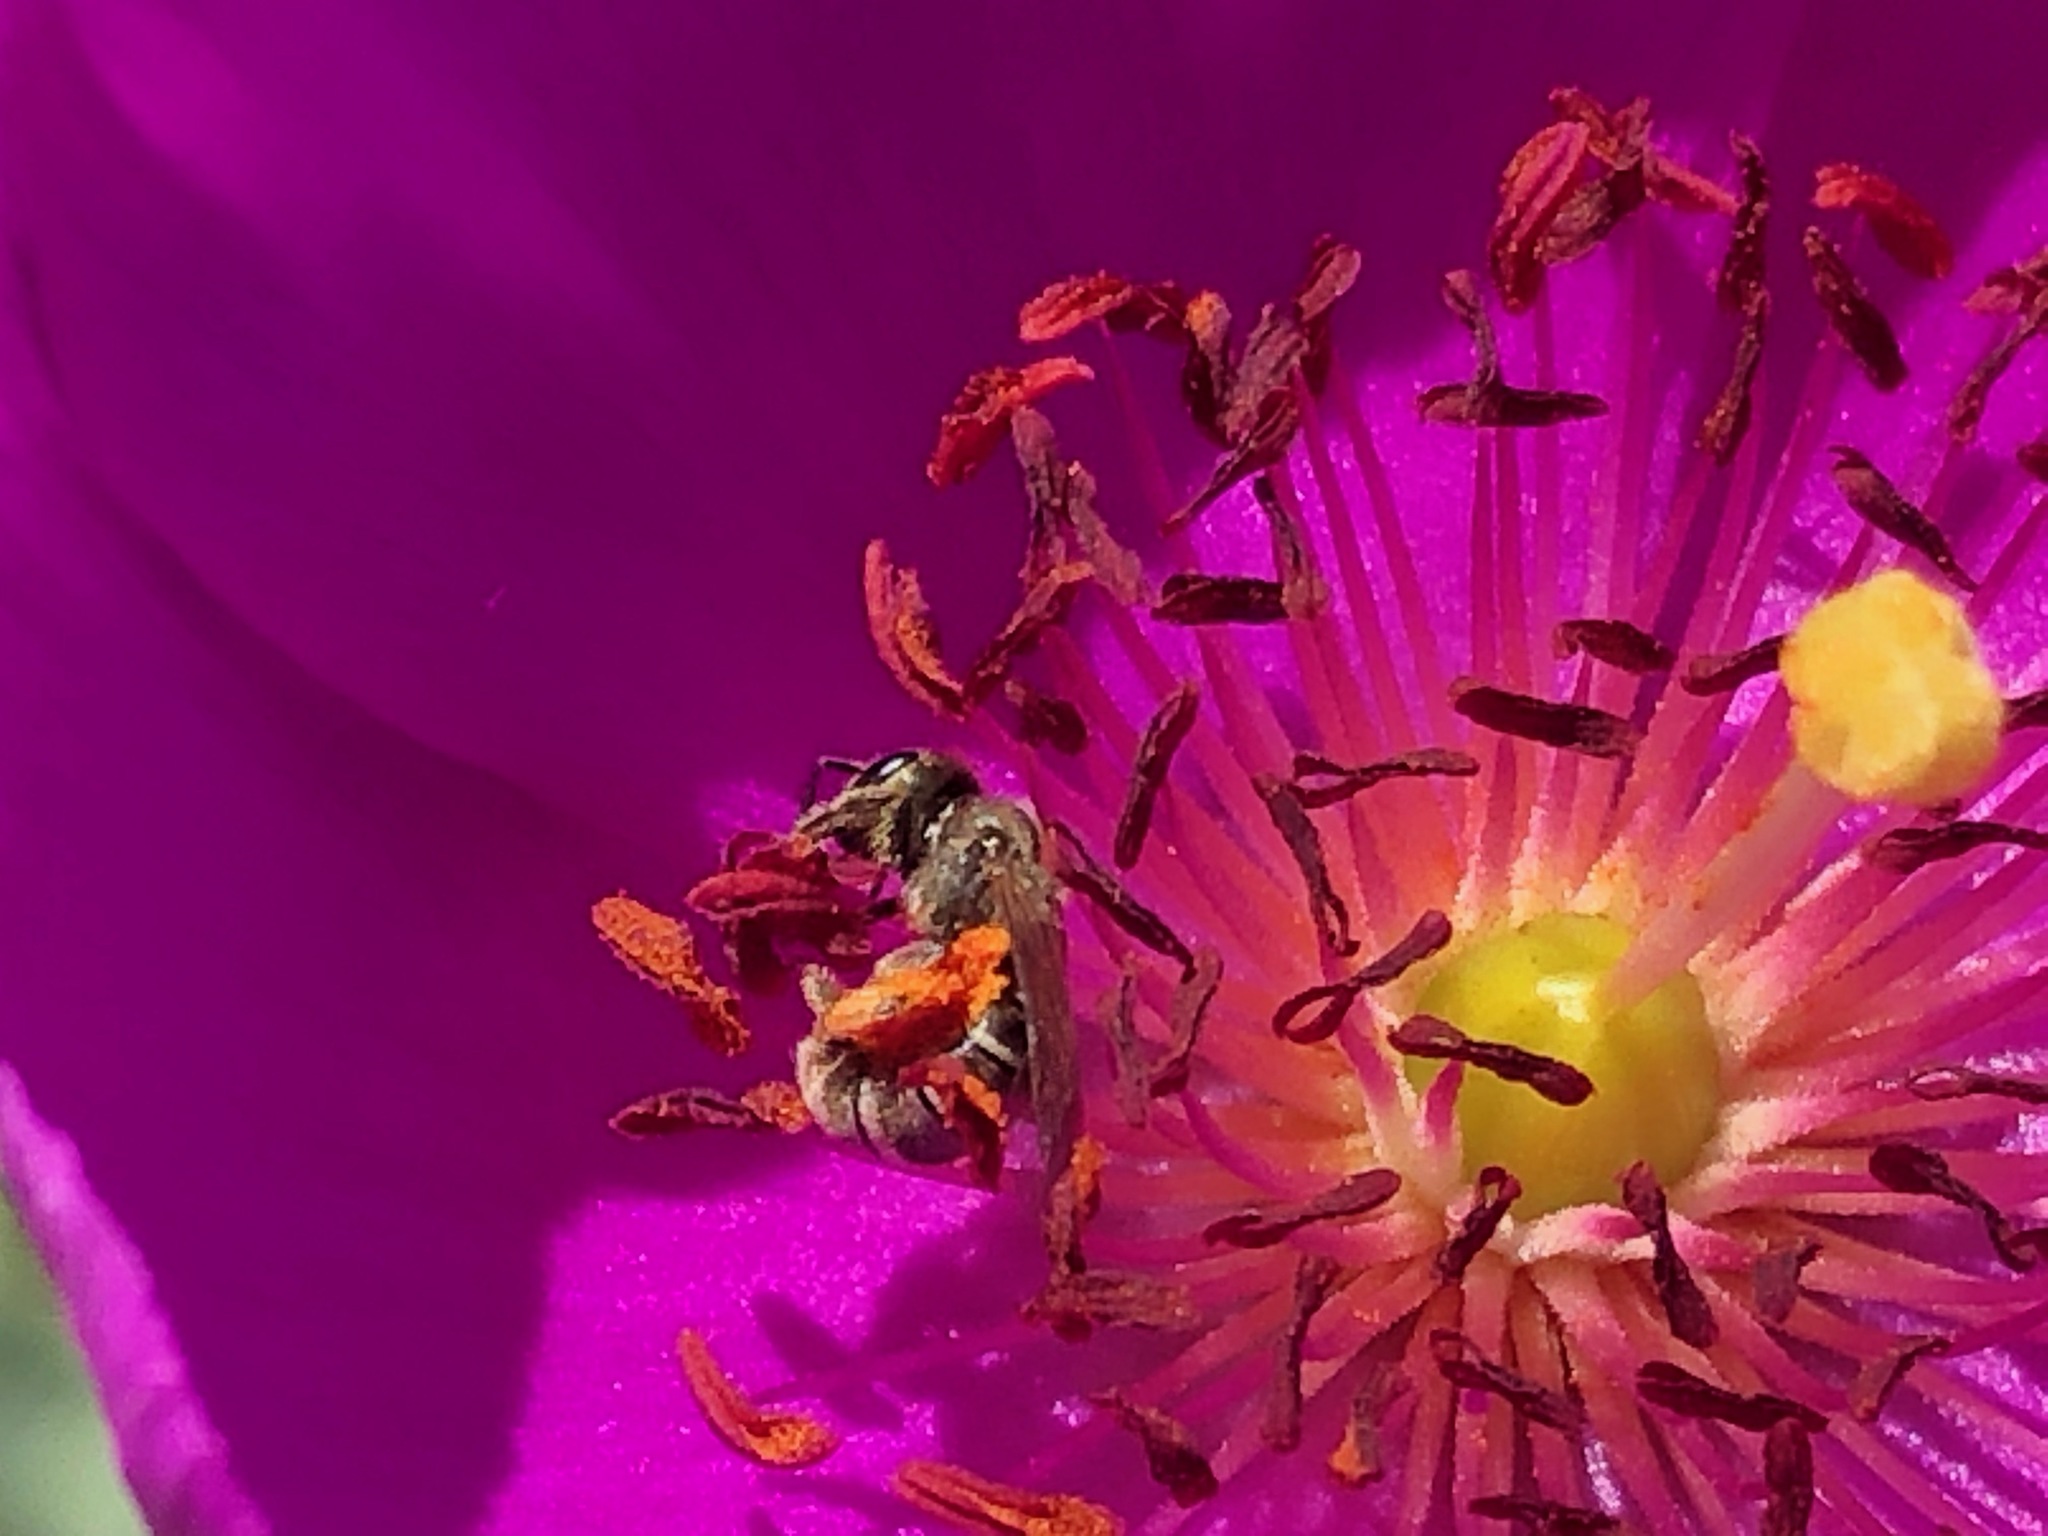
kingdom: Animalia
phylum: Arthropoda
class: Insecta
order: Hymenoptera
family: Halictidae
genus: Halictus
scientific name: Halictus tripartitus
